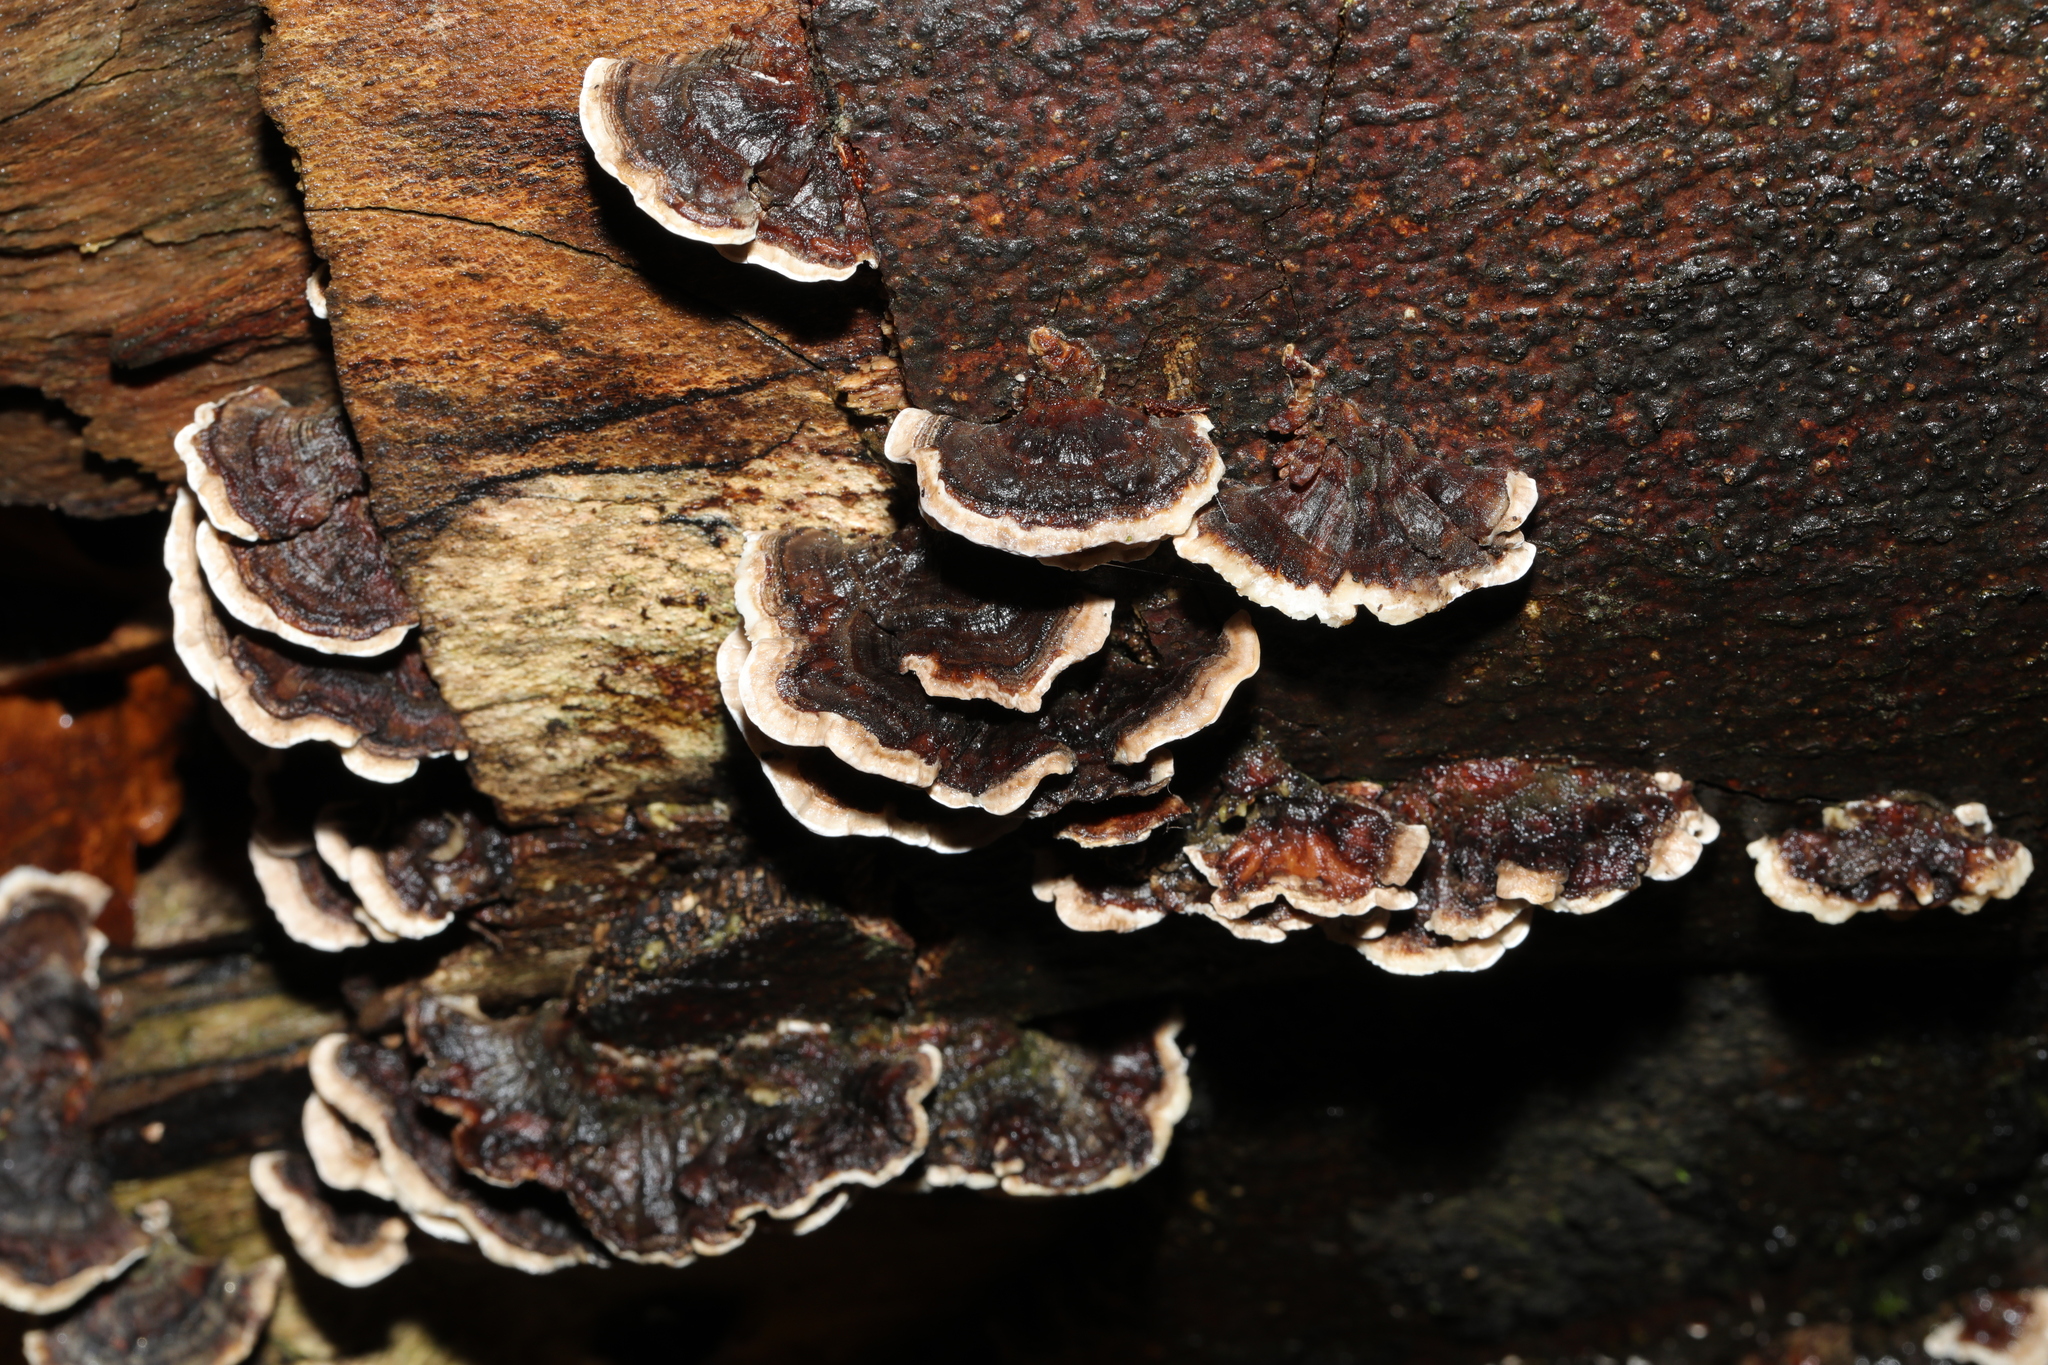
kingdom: Fungi
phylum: Basidiomycota
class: Agaricomycetes
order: Polyporales
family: Polyporaceae
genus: Trametes
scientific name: Trametes versicolor
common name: Turkeytail
